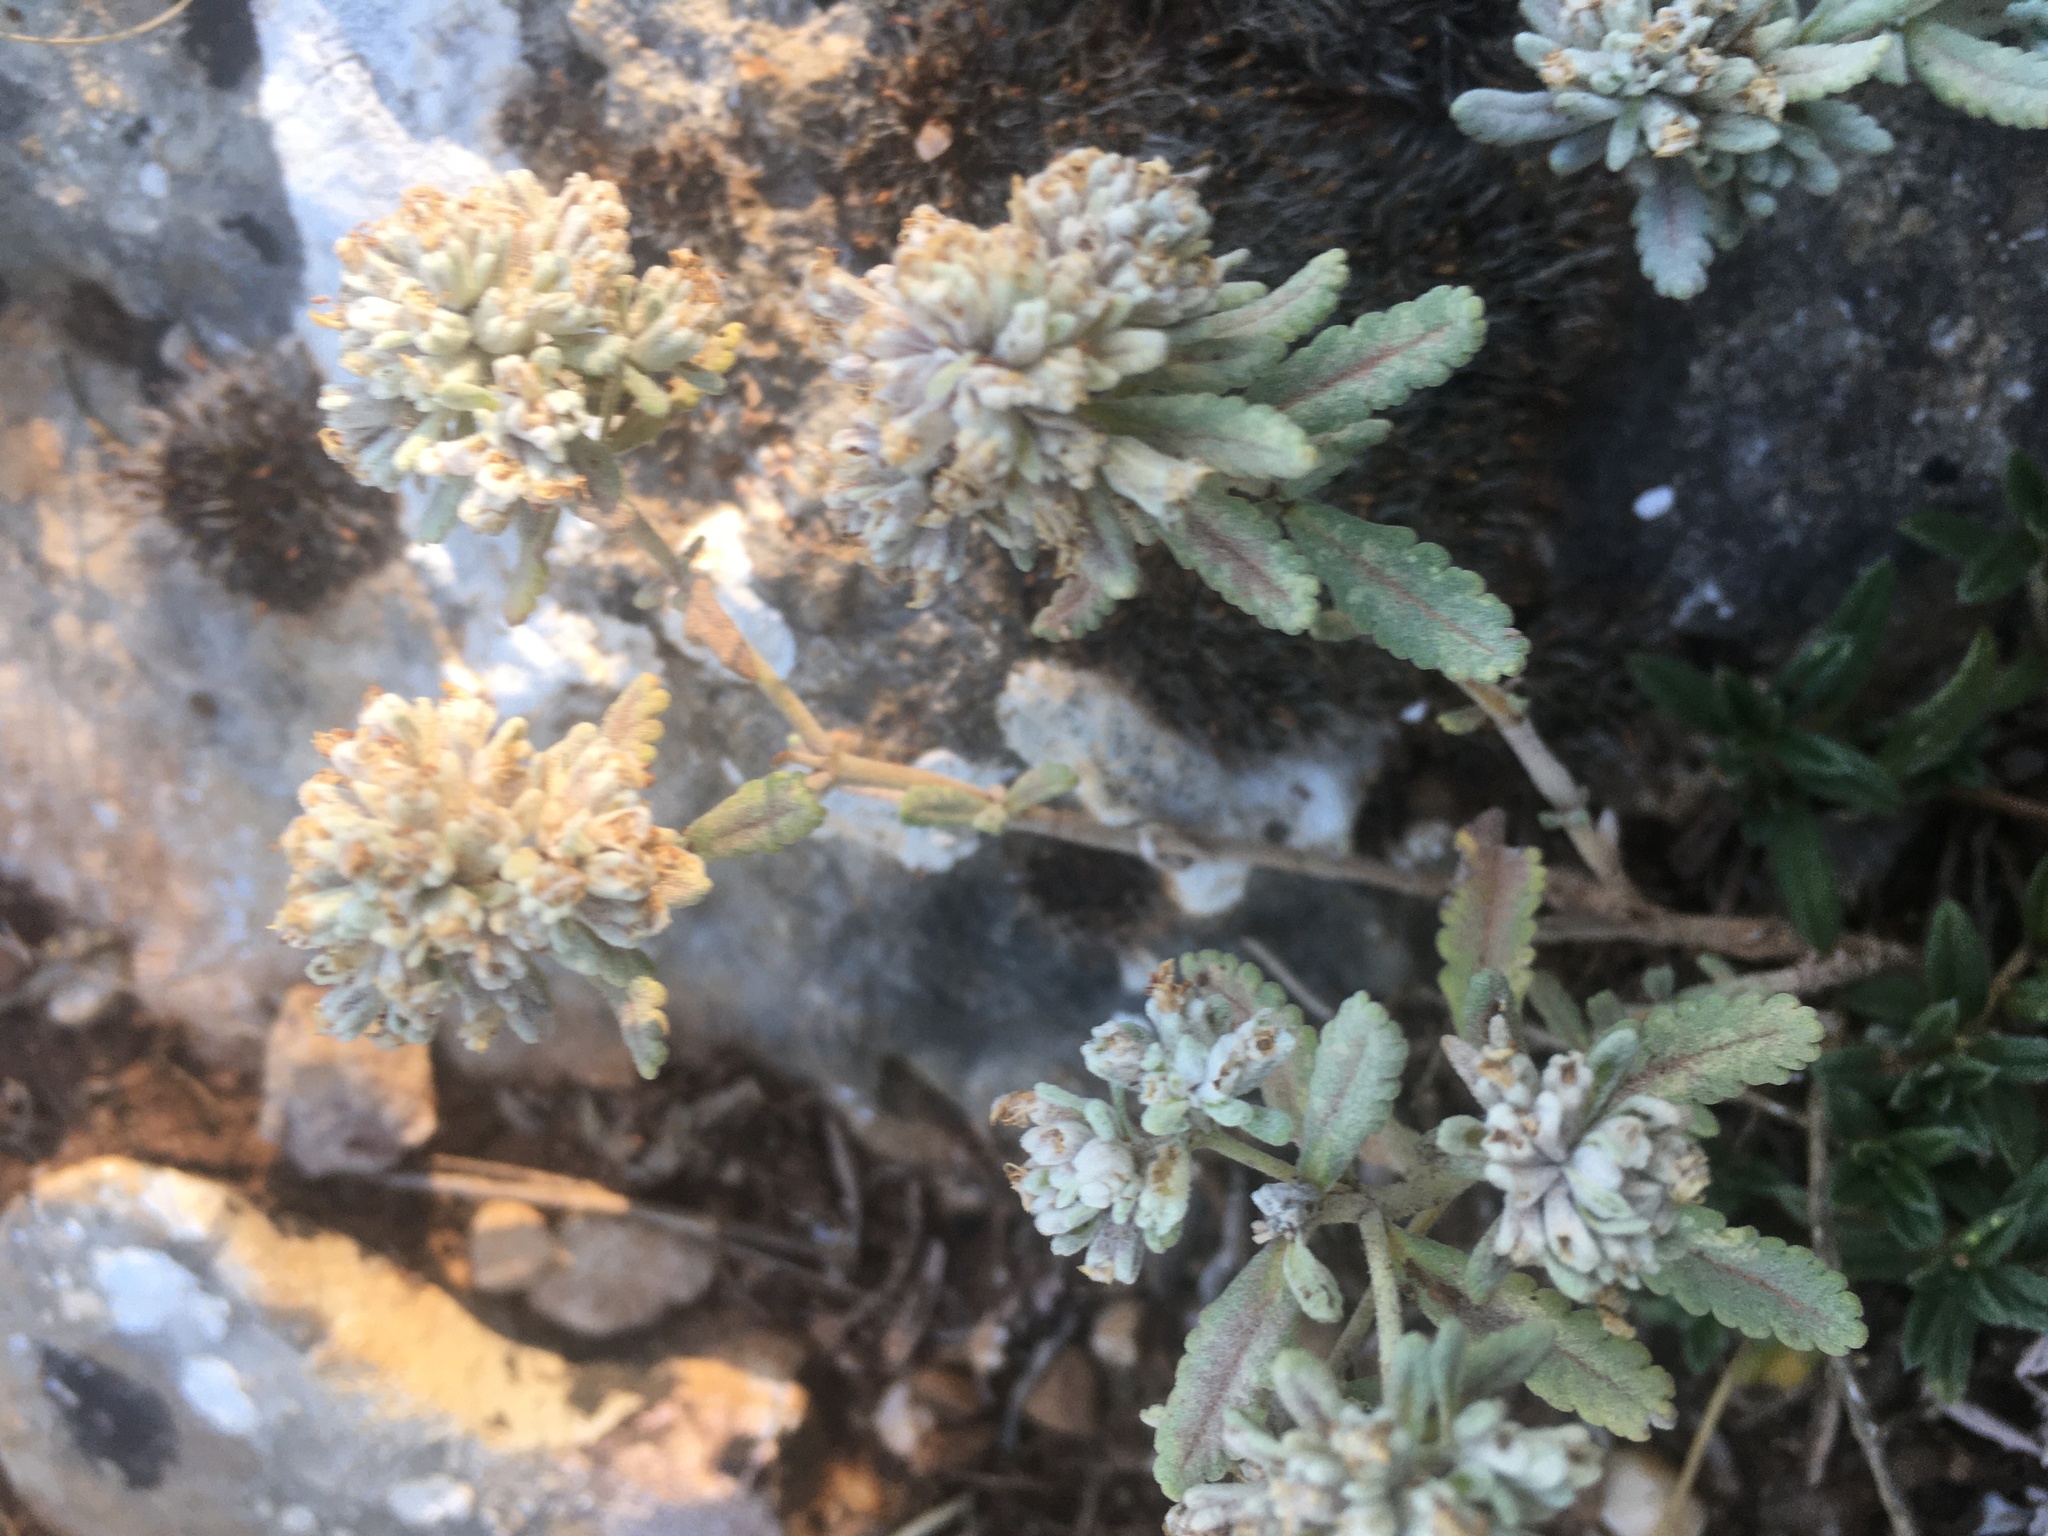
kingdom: Plantae
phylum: Tracheophyta
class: Magnoliopsida
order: Lamiales
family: Lamiaceae
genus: Teucrium
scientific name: Teucrium polium
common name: Poley
